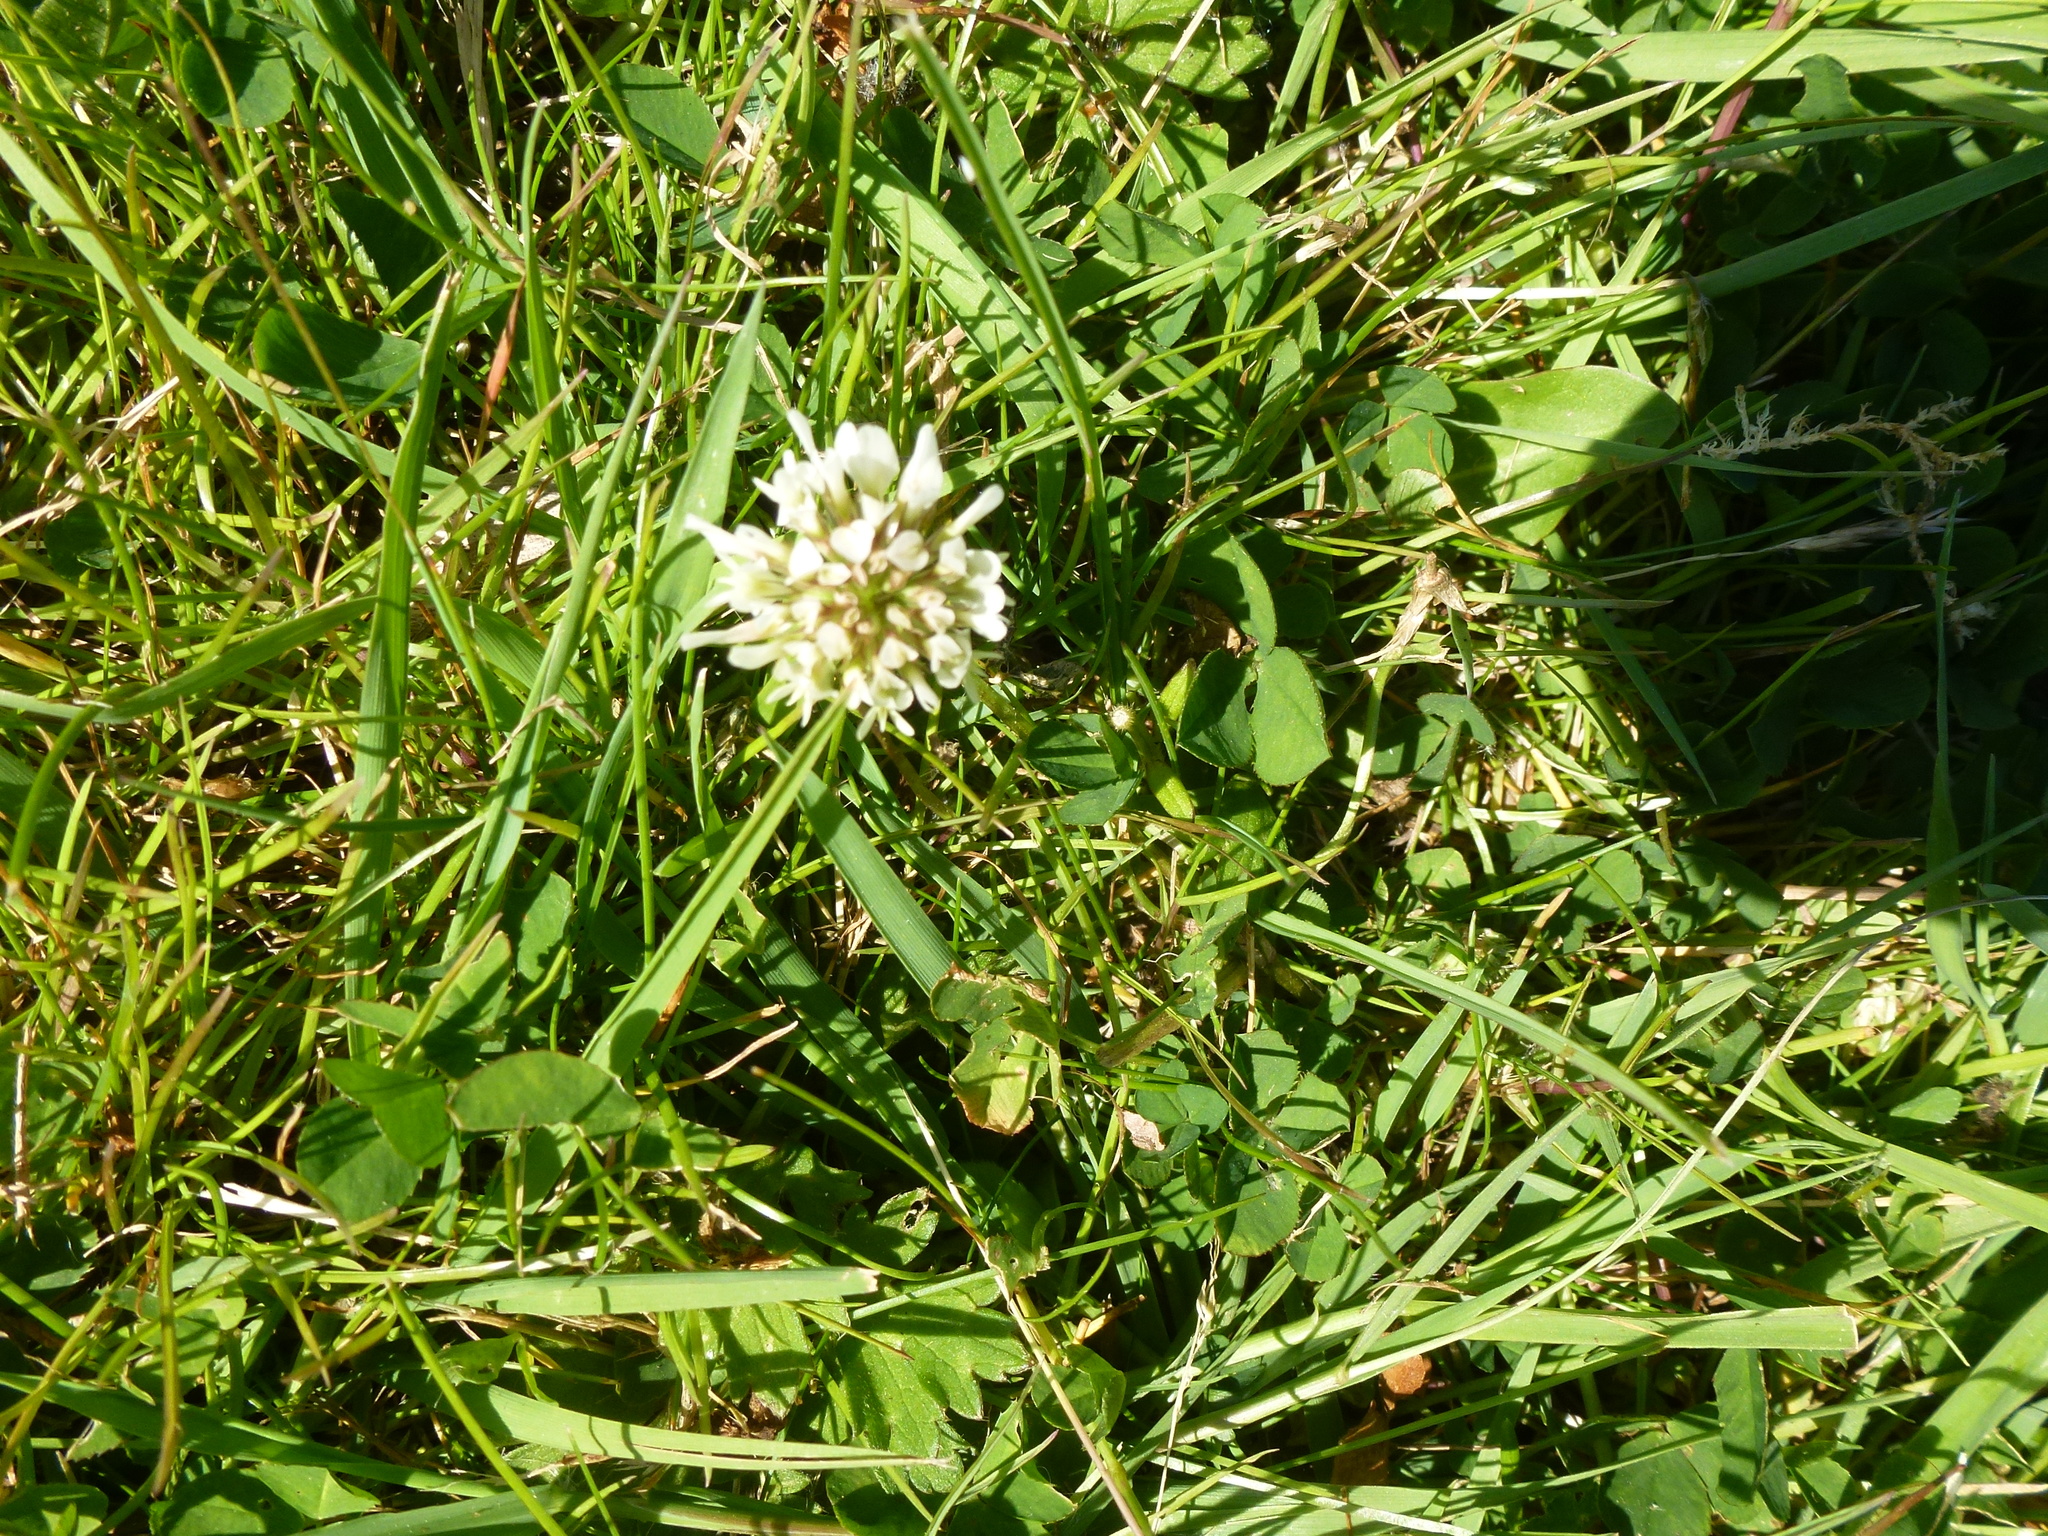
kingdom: Plantae
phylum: Tracheophyta
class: Magnoliopsida
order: Fabales
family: Fabaceae
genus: Trifolium
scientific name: Trifolium repens
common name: White clover
